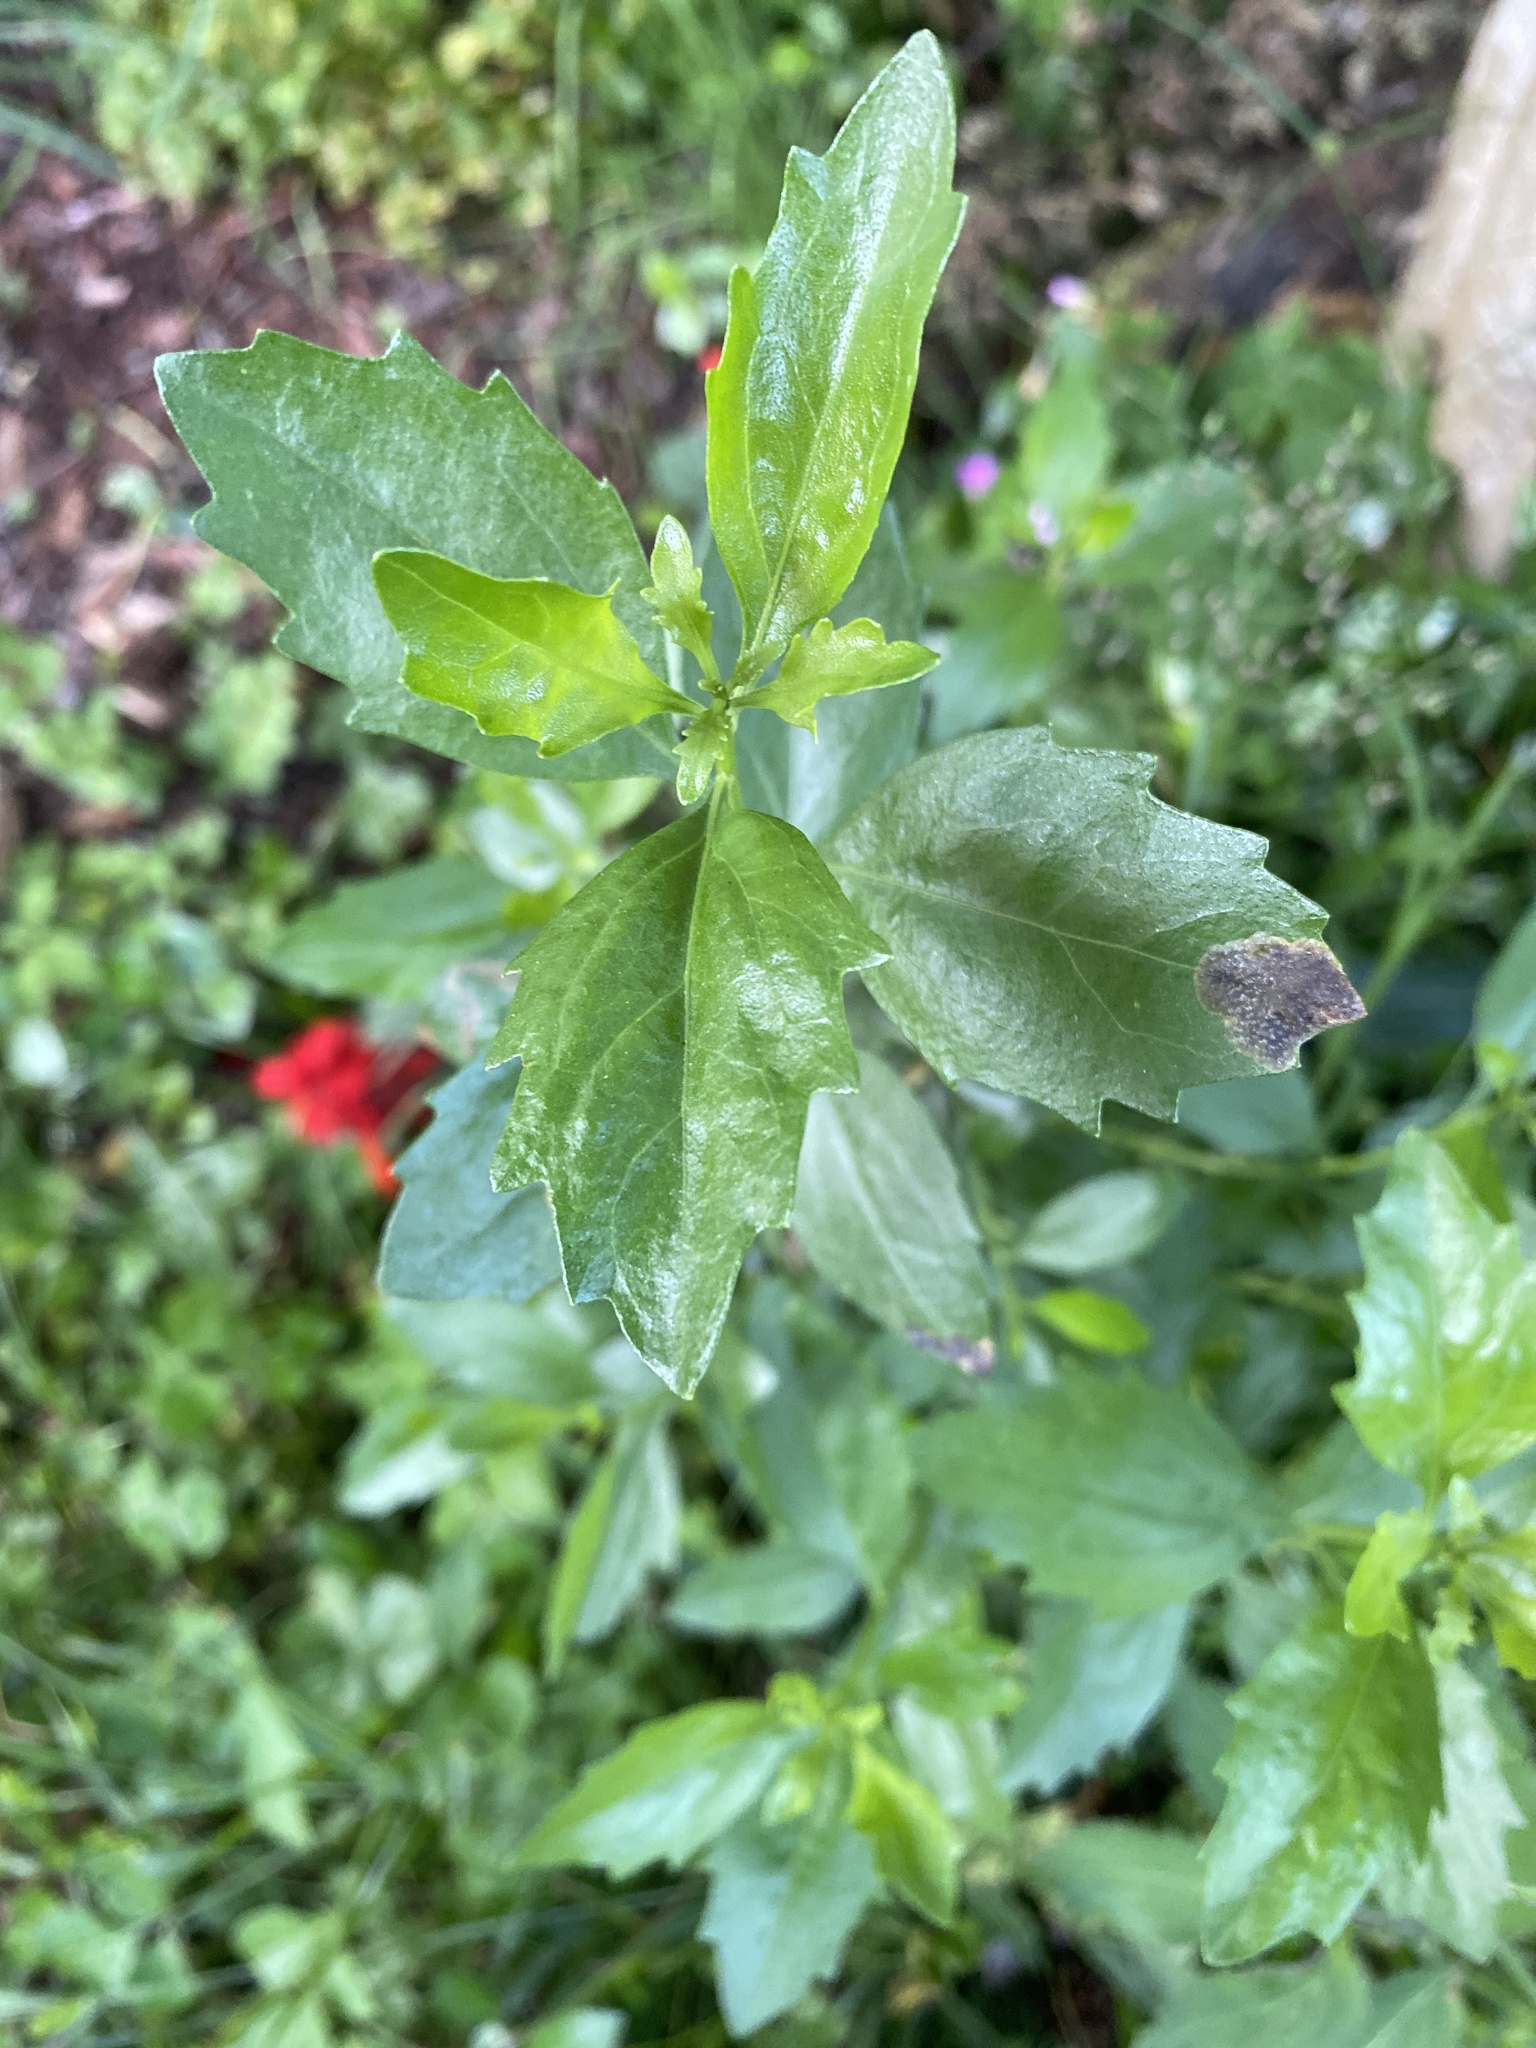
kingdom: Plantae
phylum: Tracheophyta
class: Magnoliopsida
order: Asterales
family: Asteraceae
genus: Baccharis
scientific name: Baccharis halimifolia
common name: Eastern baccharis
